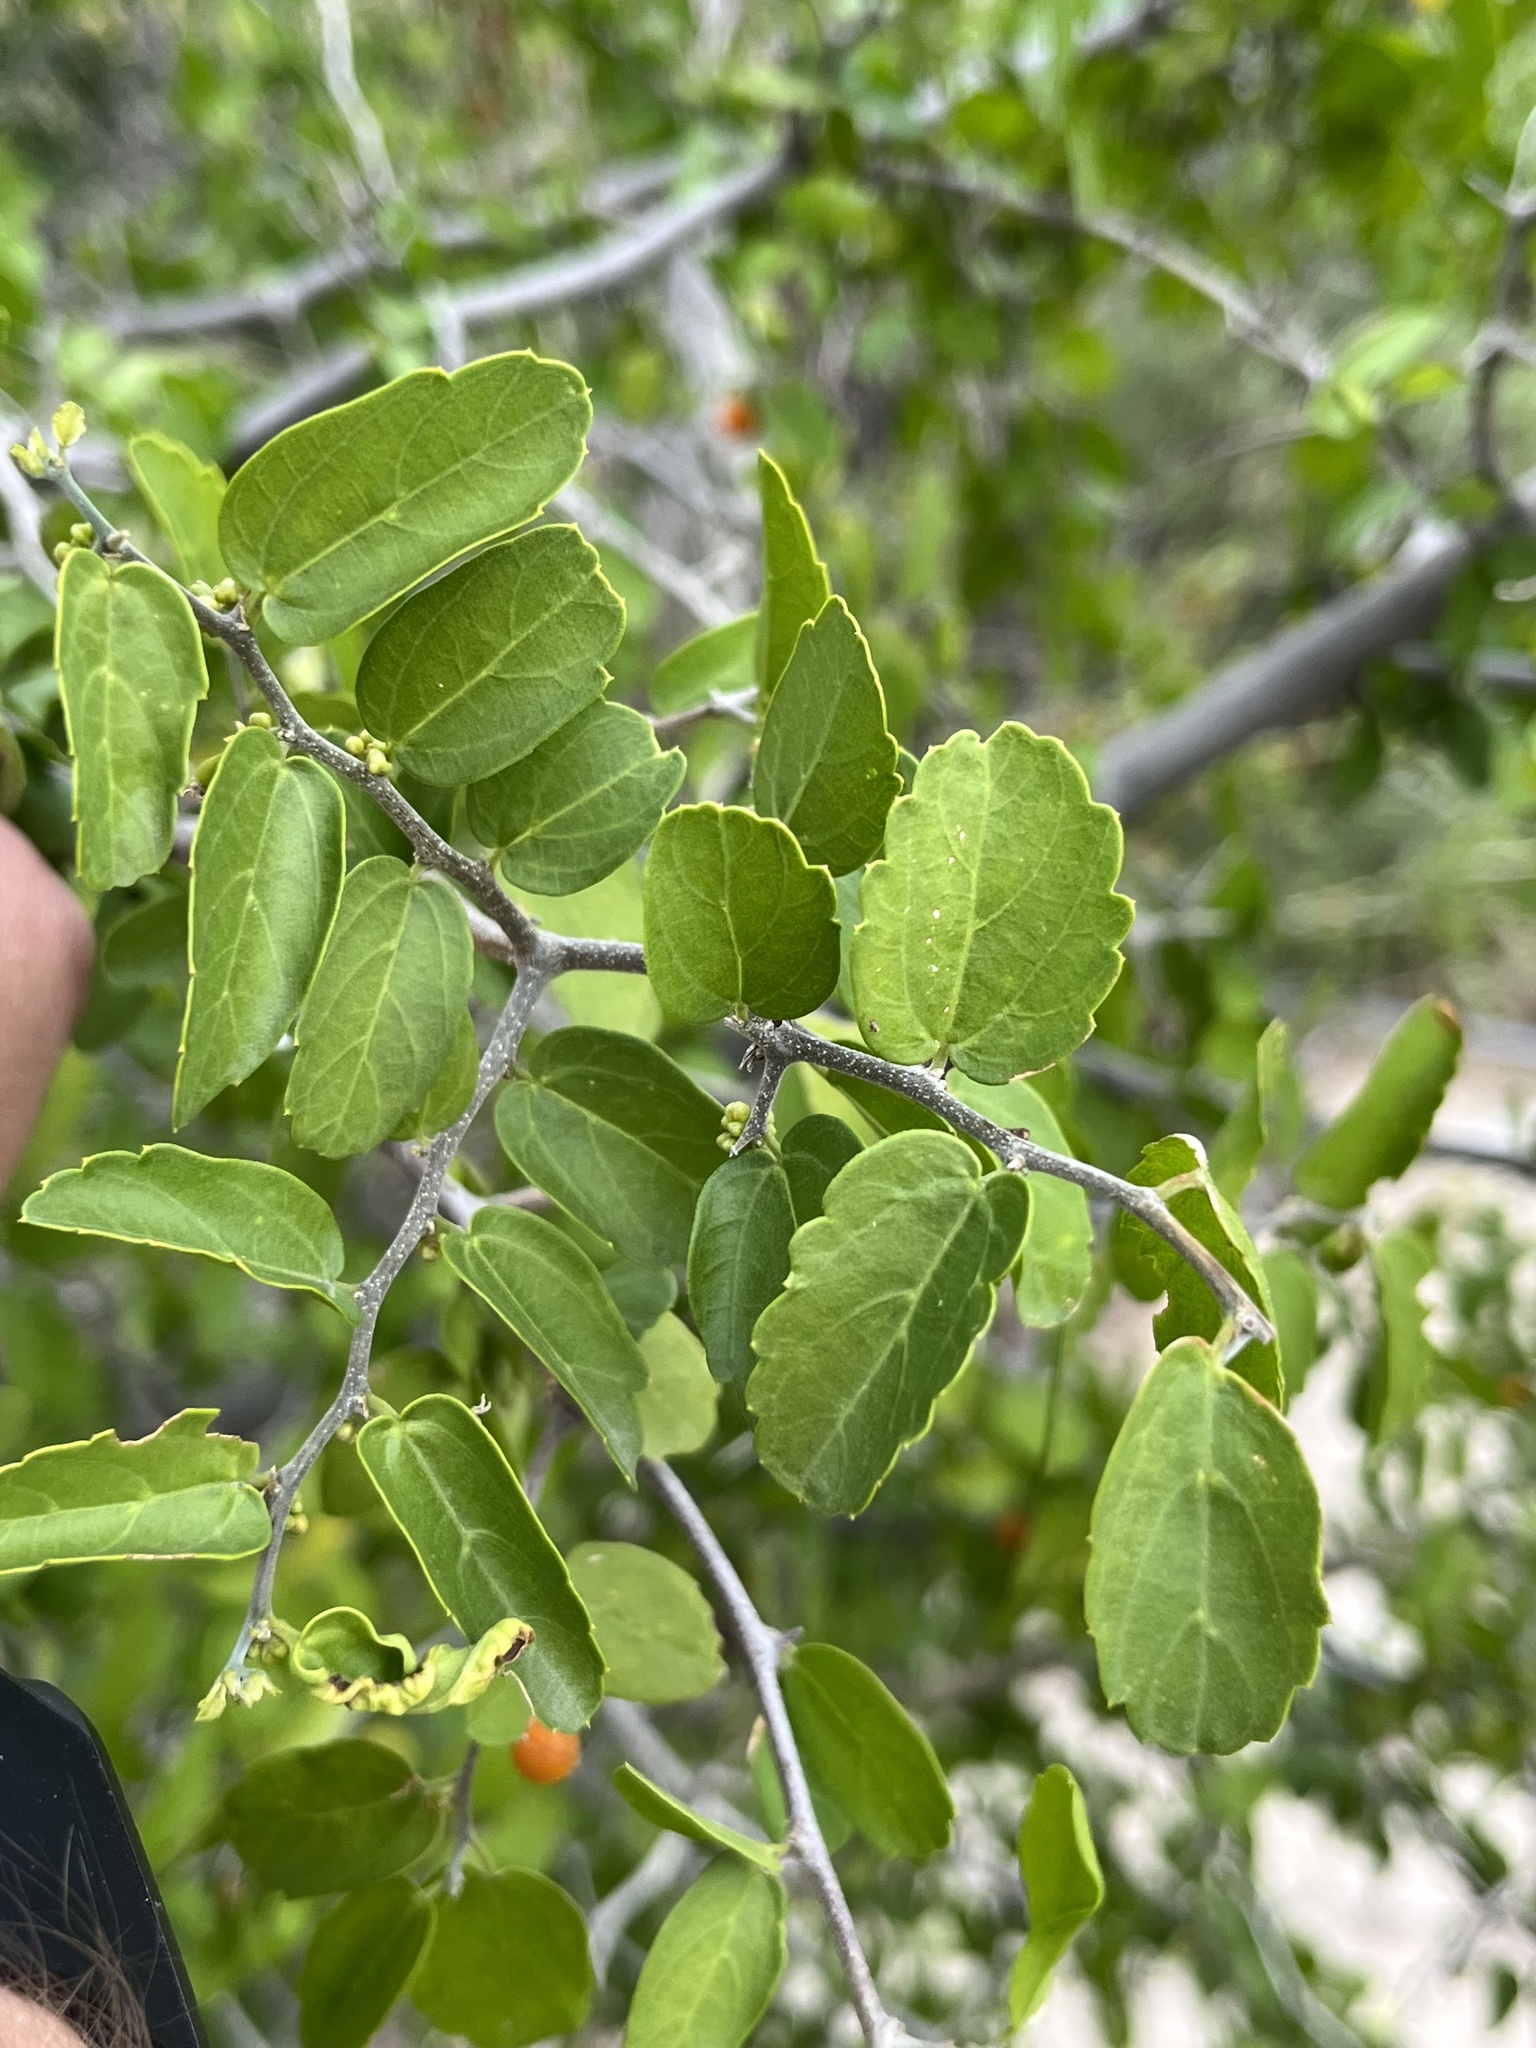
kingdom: Plantae
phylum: Tracheophyta
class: Magnoliopsida
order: Rosales
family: Cannabaceae
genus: Celtis
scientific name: Celtis pallida
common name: Desert hackberry
